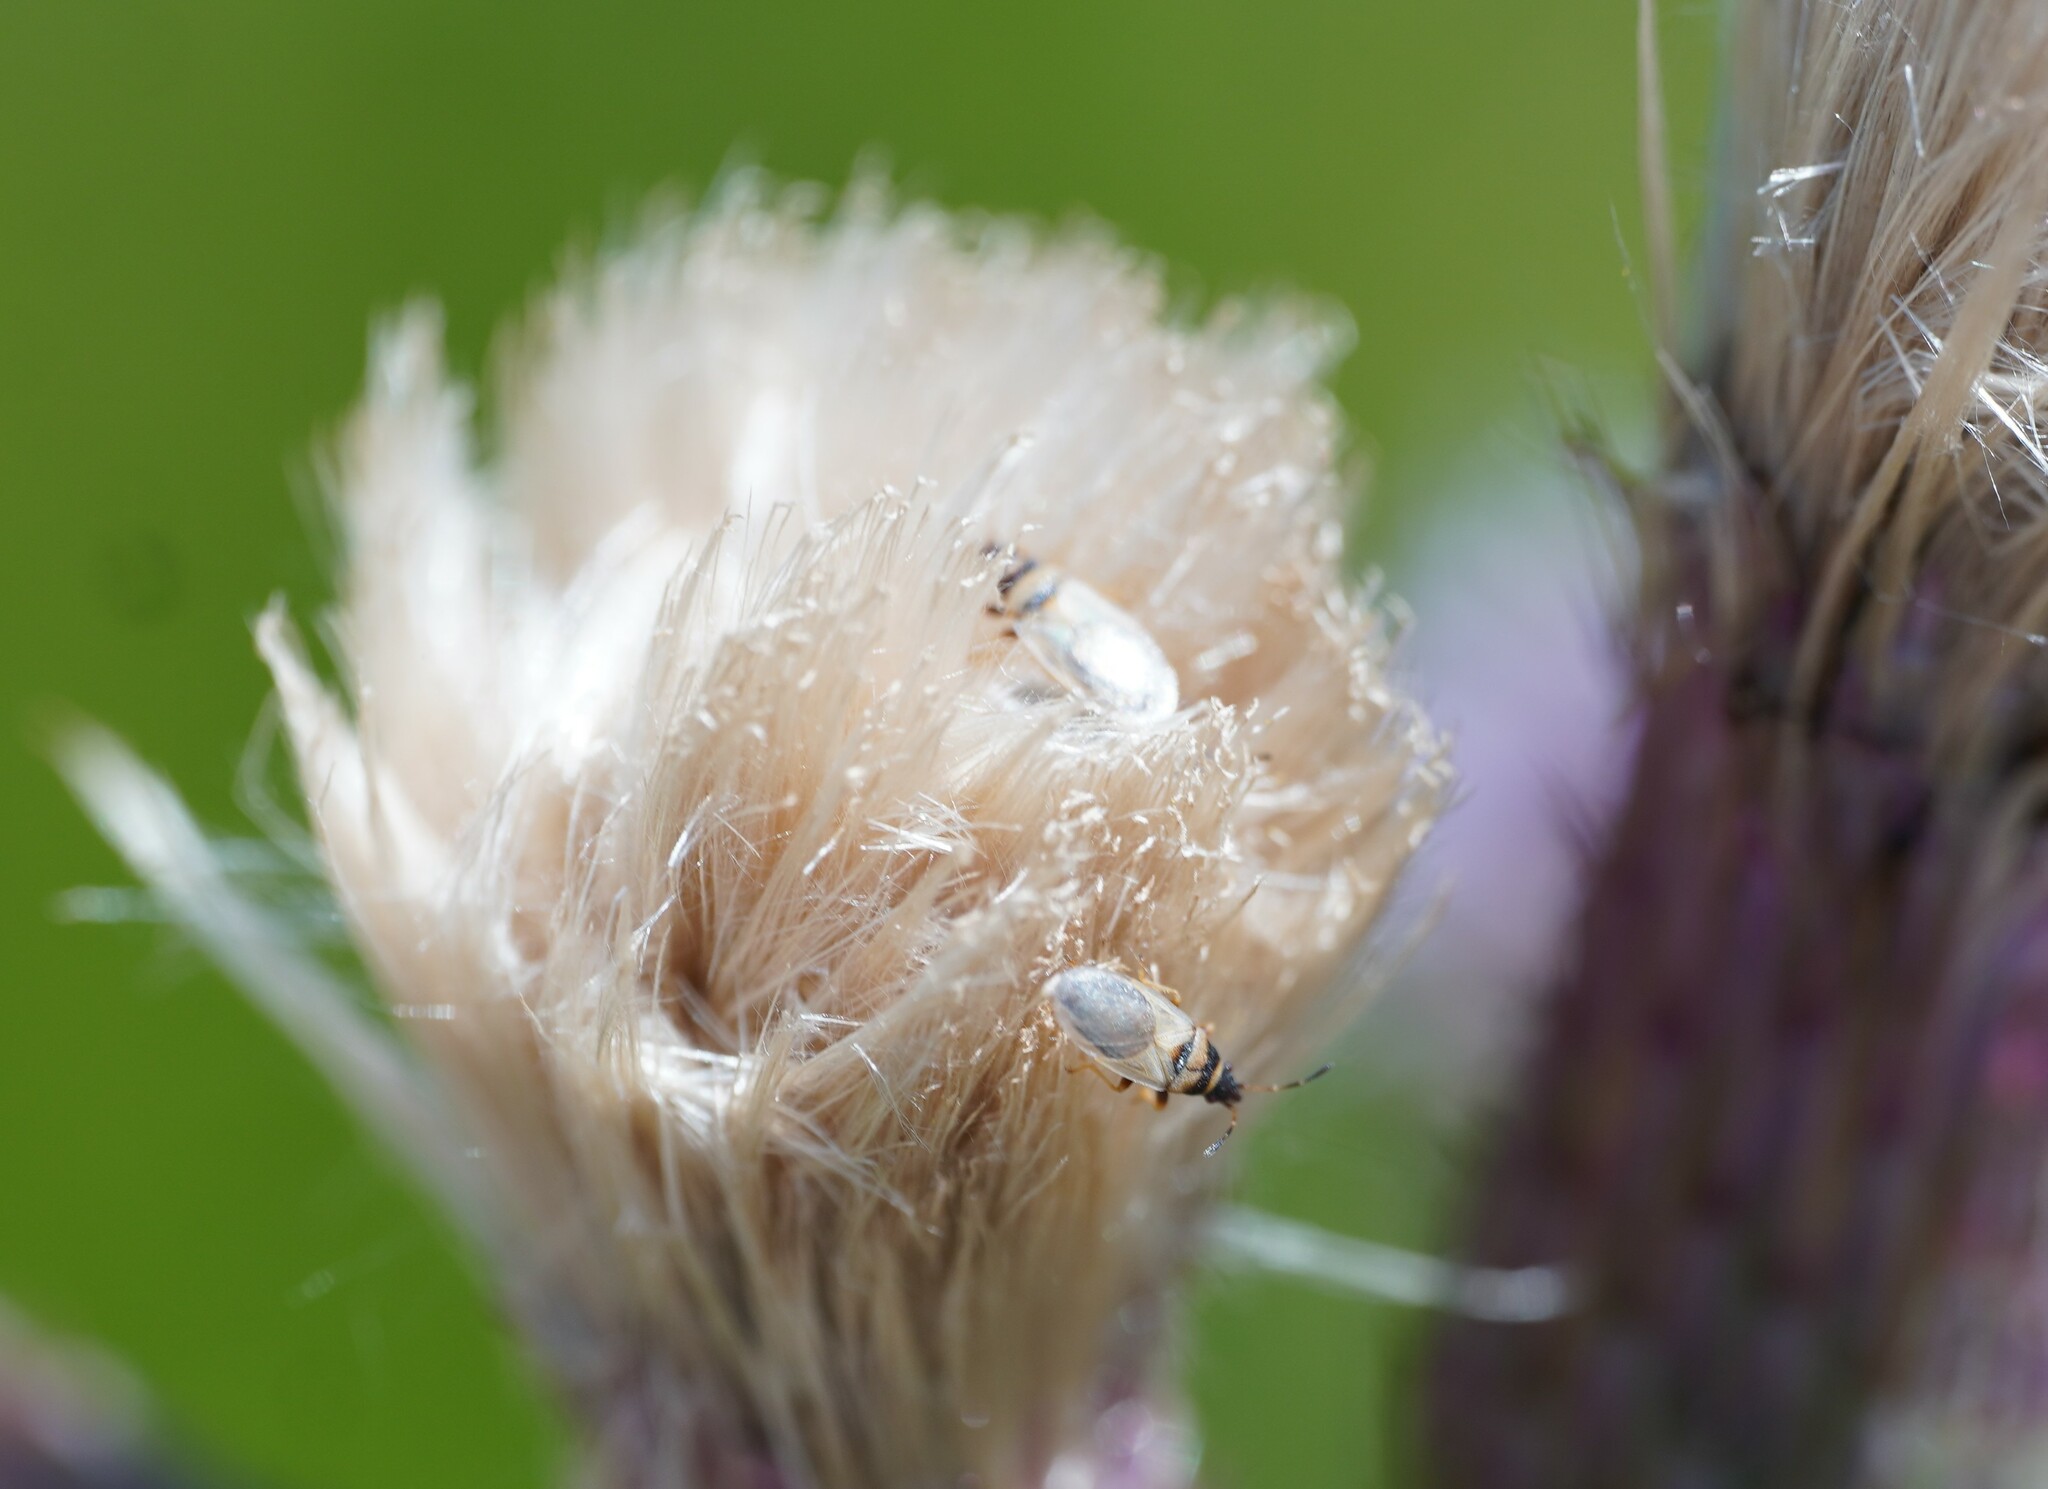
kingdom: Animalia
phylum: Arthropoda
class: Insecta
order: Hemiptera
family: Oxycarenidae
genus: Oxycarenus
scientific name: Oxycarenus pallens
